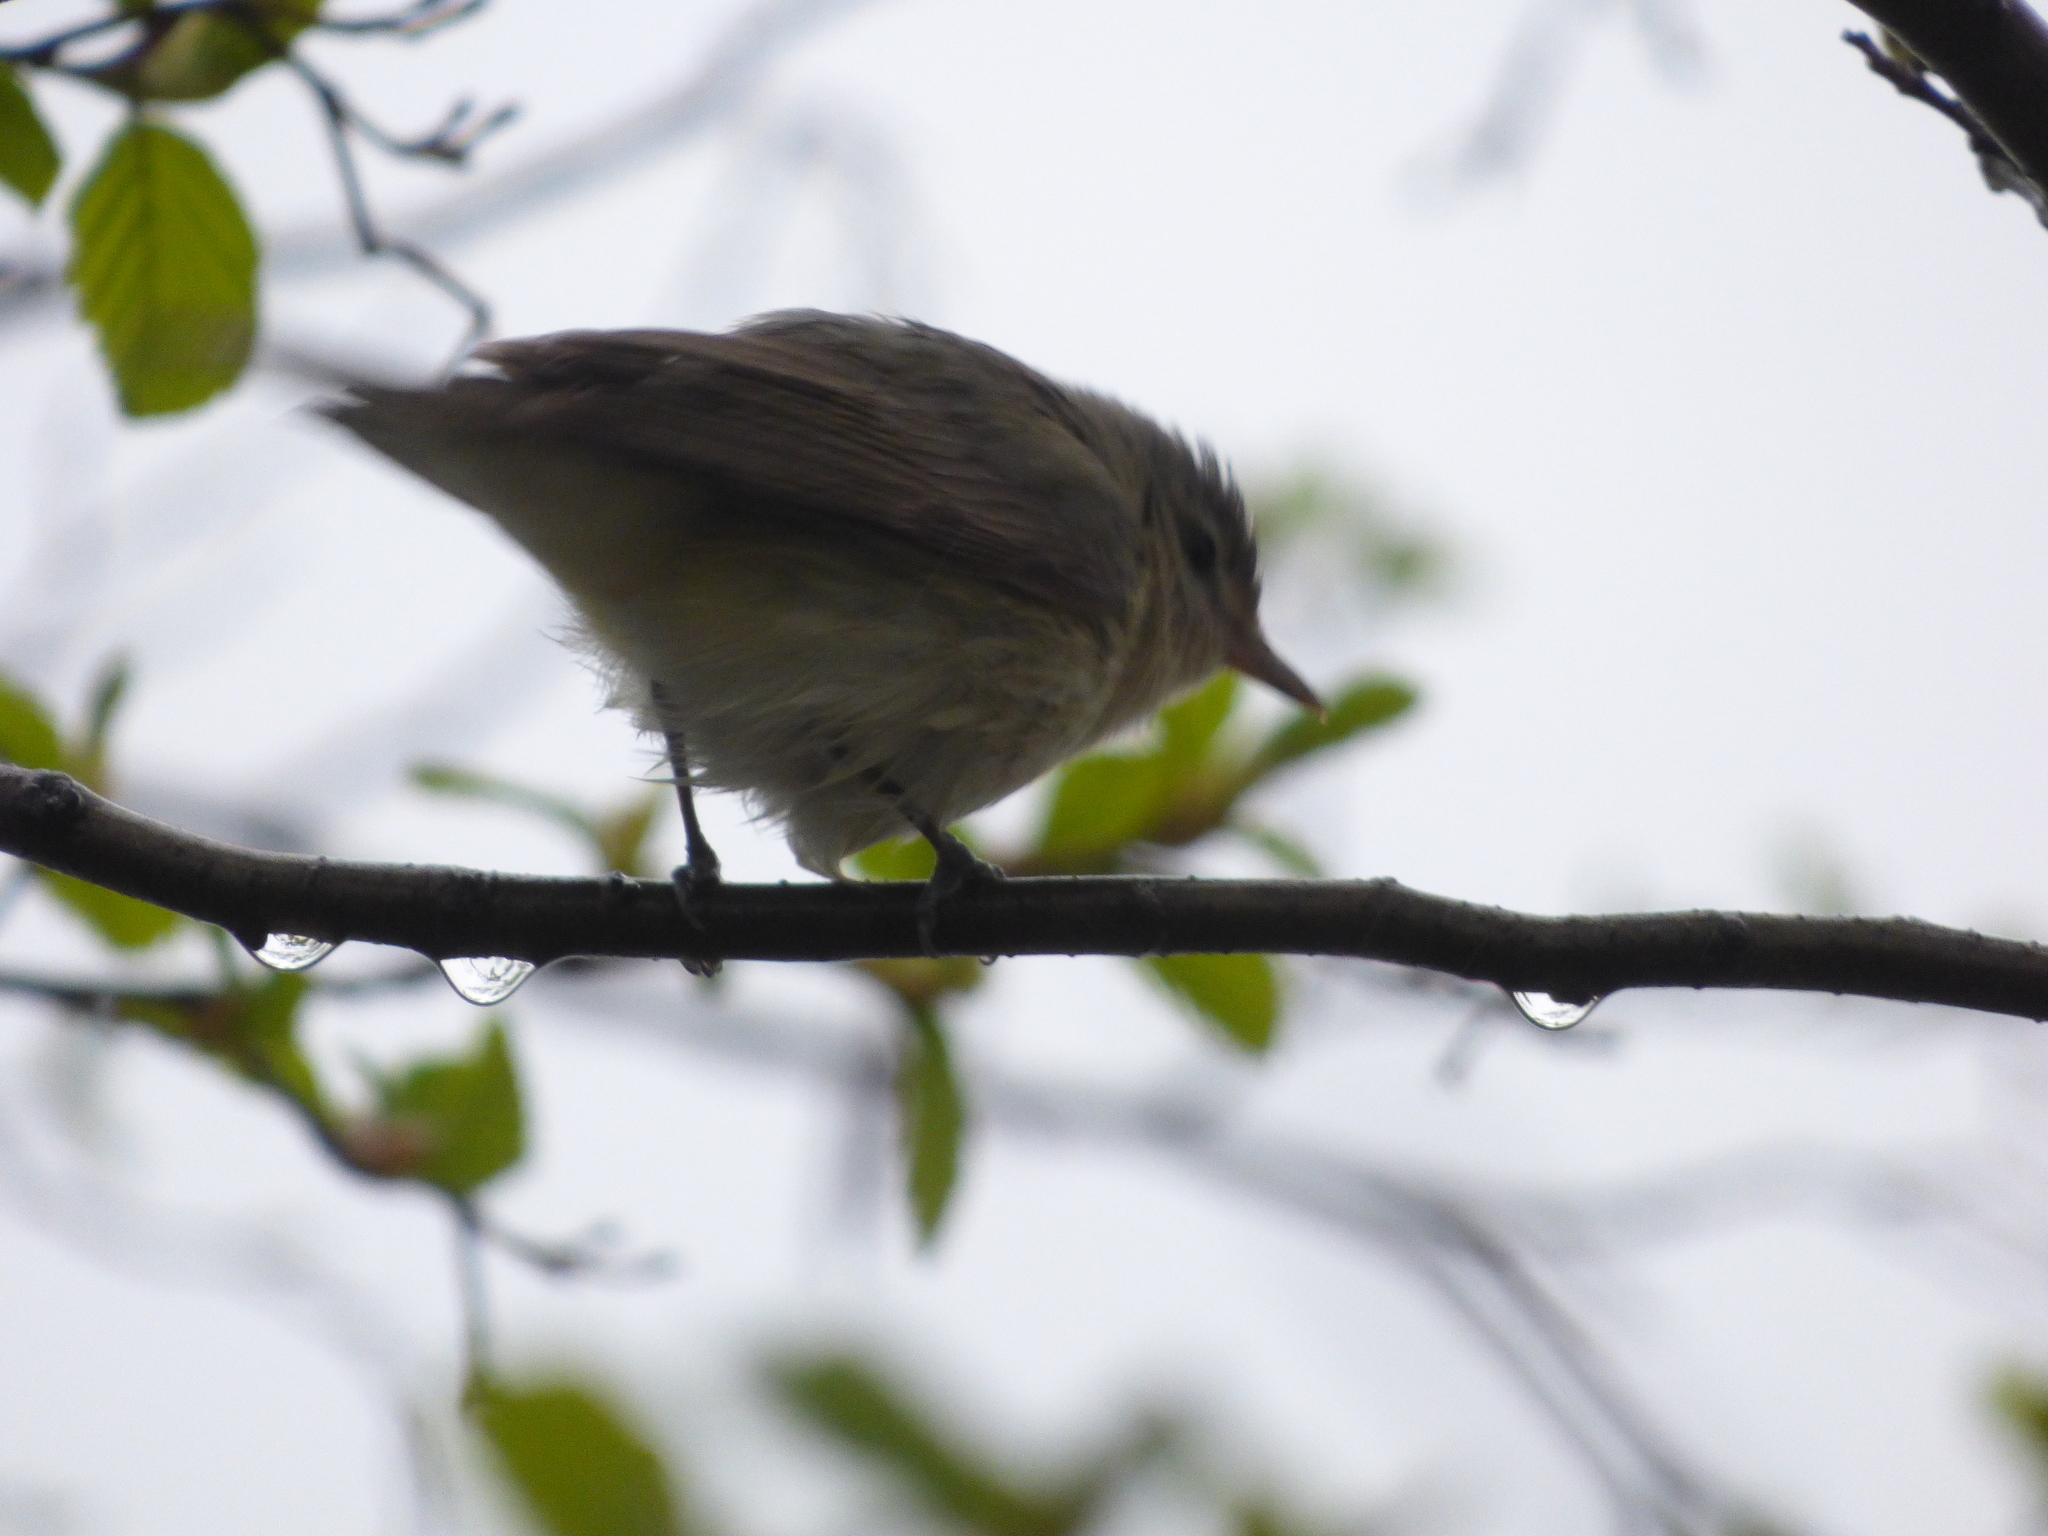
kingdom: Animalia
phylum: Chordata
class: Aves
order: Passeriformes
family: Vireonidae
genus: Vireo
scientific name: Vireo gilvus
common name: Warbling vireo
